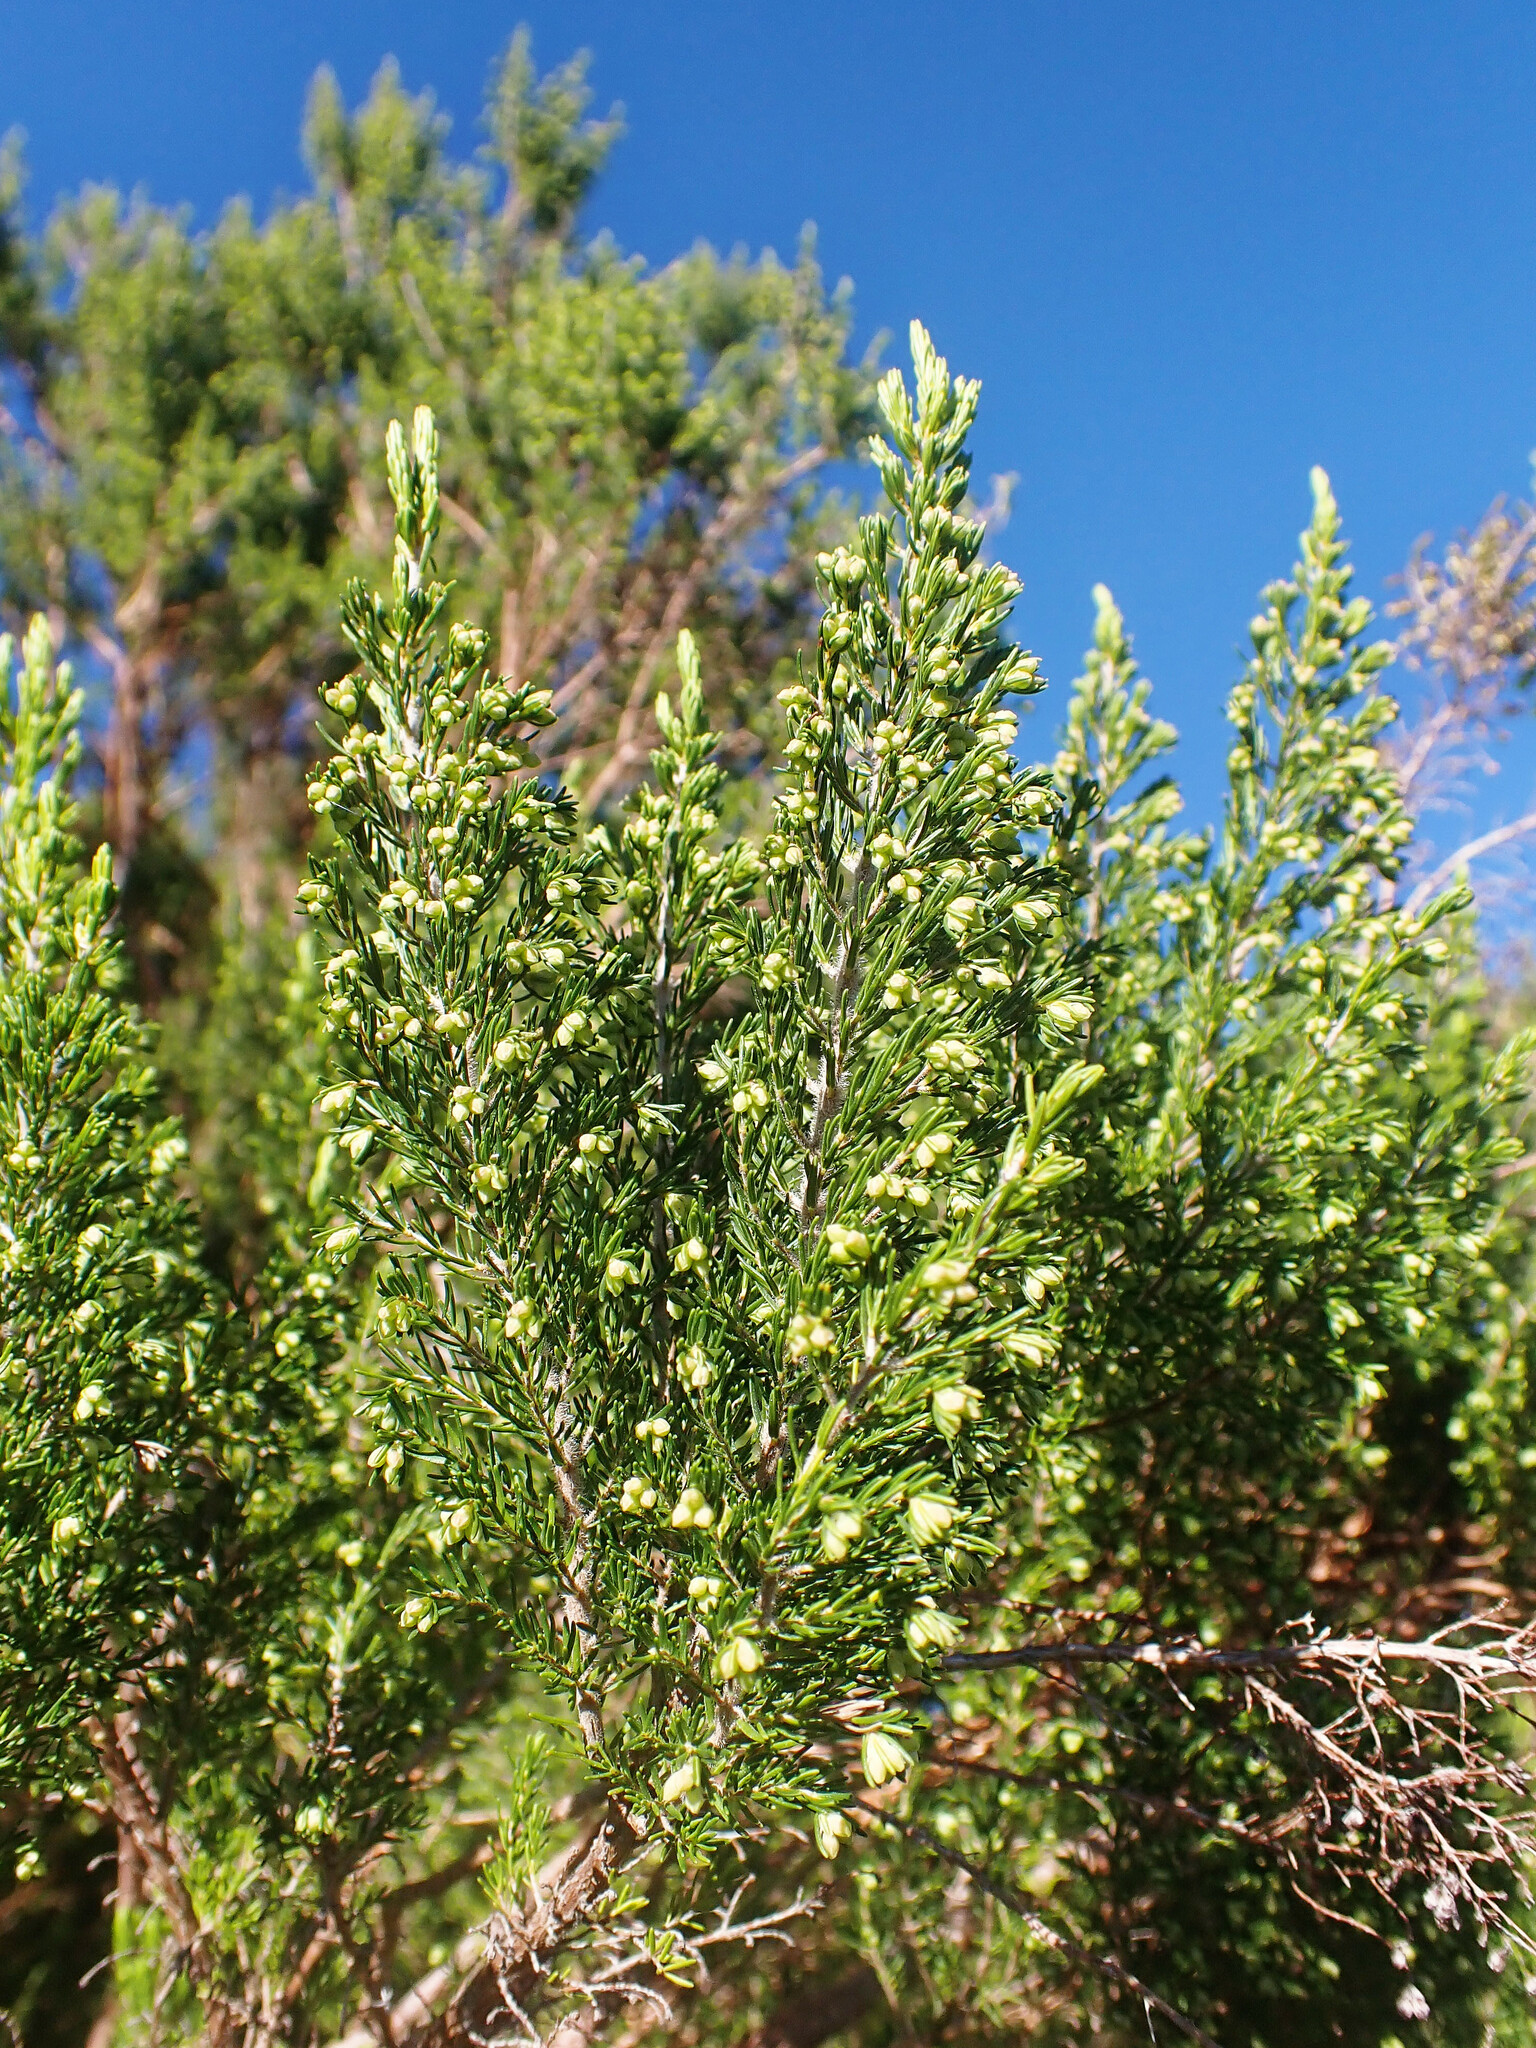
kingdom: Plantae
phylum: Tracheophyta
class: Magnoliopsida
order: Ericales
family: Ericaceae
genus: Erica
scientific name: Erica canariensis
